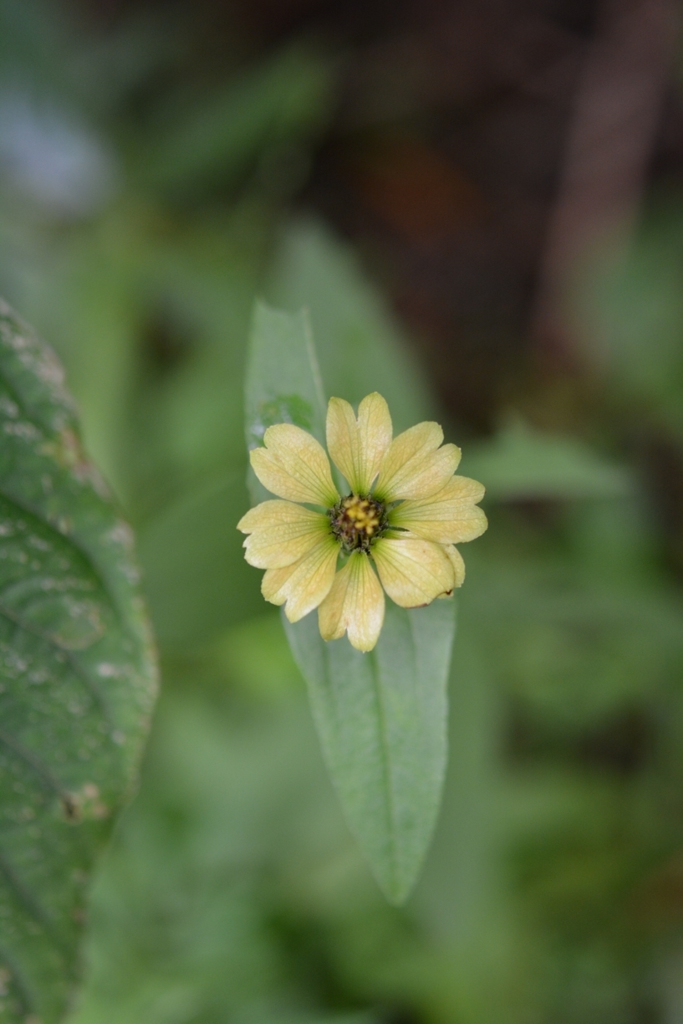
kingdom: Plantae
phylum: Tracheophyta
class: Magnoliopsida
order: Asterales
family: Asteraceae
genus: Zinnia
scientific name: Zinnia peruviana
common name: Peruvian zinnia
